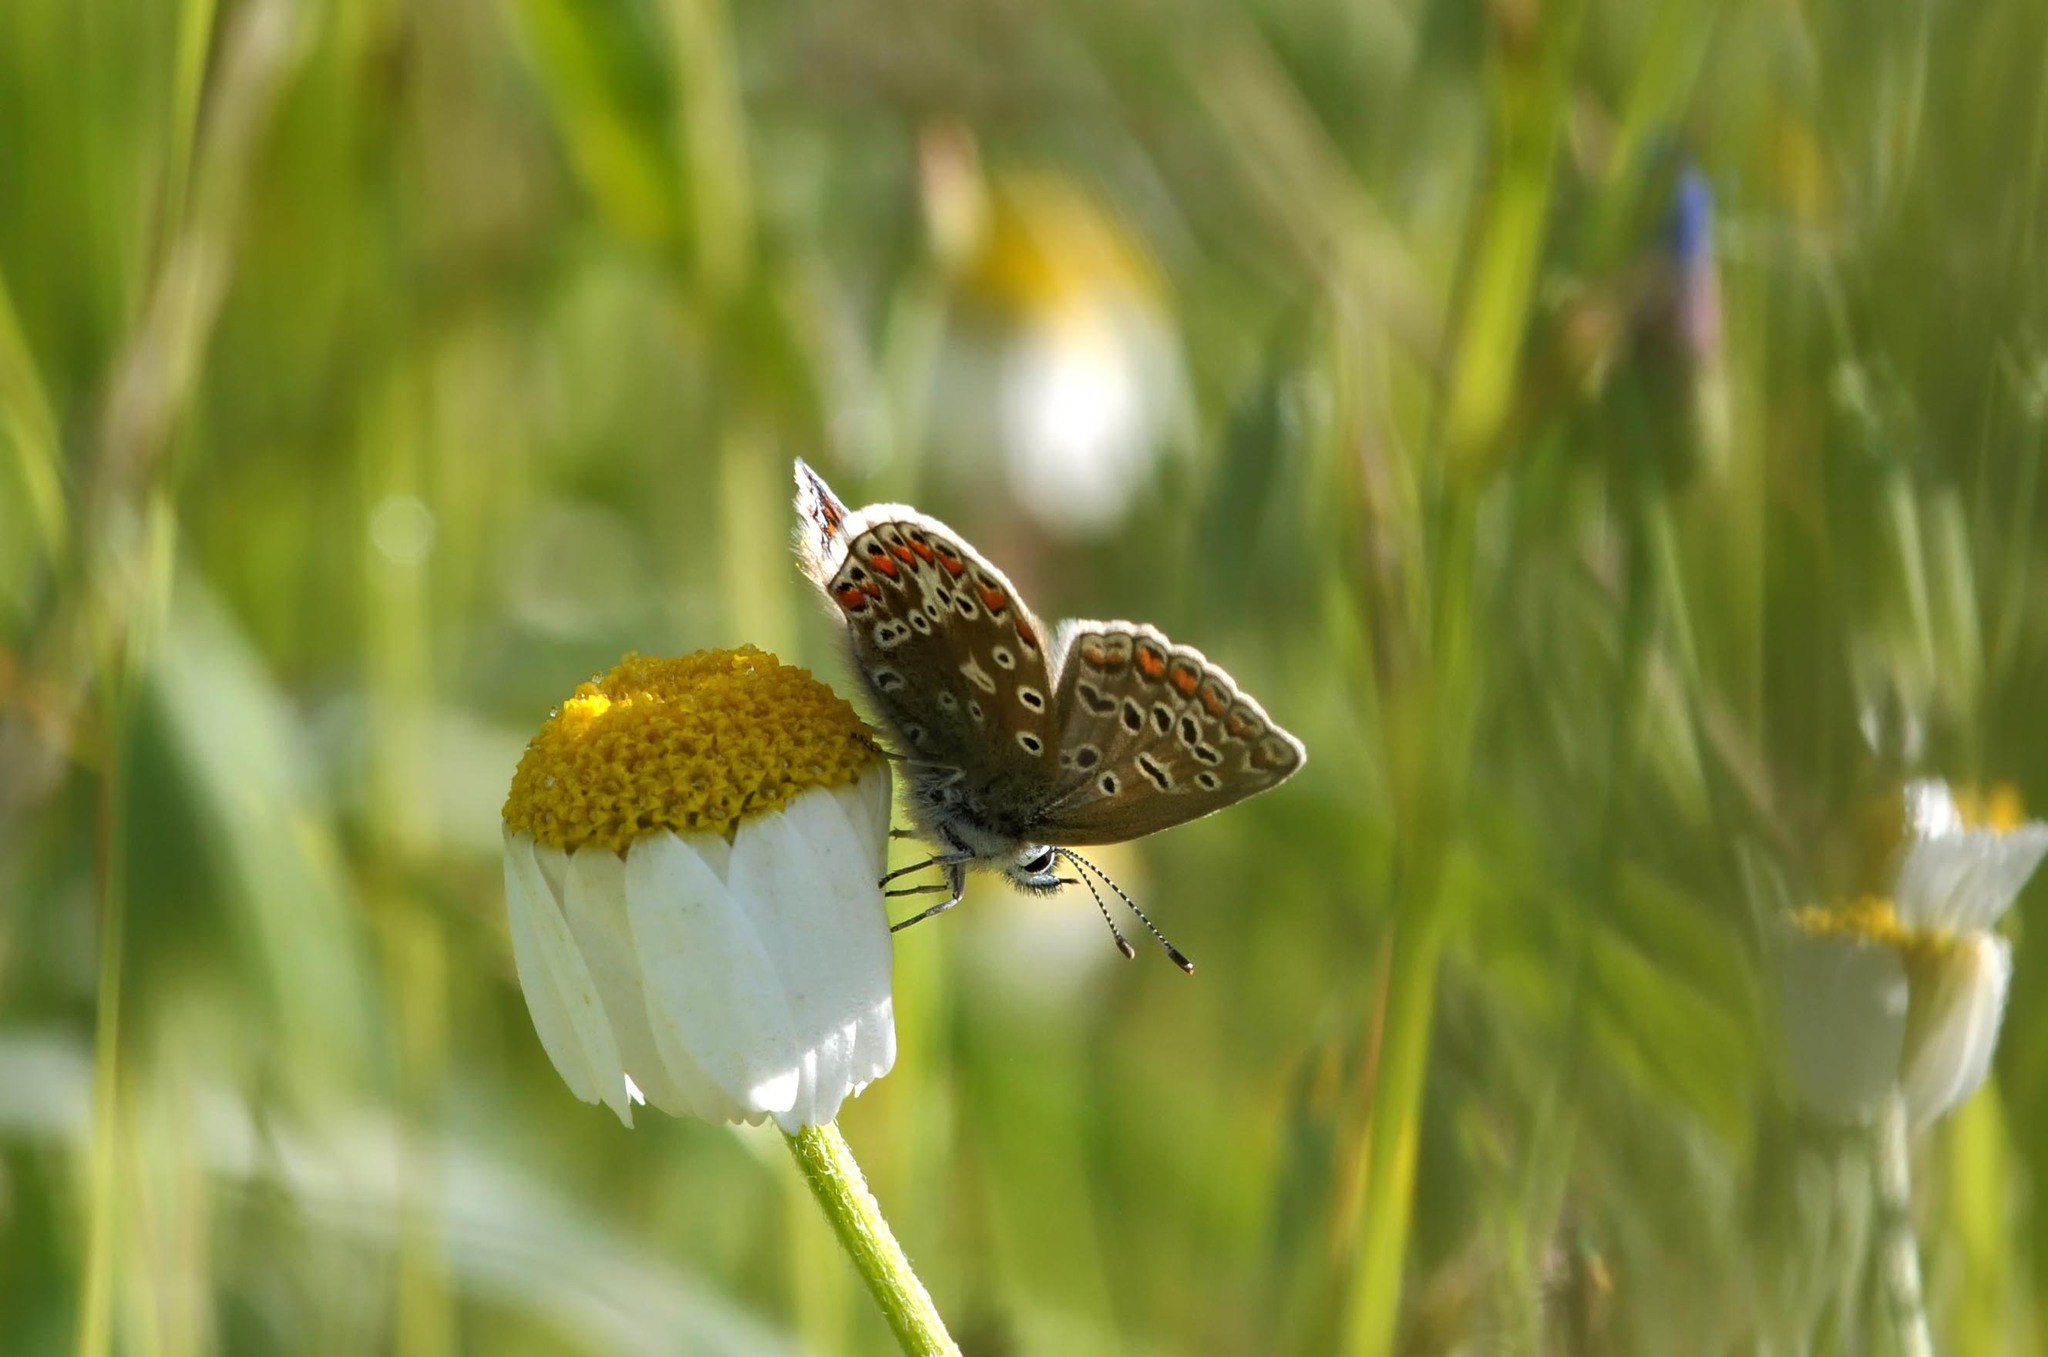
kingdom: Animalia
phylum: Arthropoda
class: Insecta
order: Lepidoptera
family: Lycaenidae
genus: Polyommatus
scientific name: Polyommatus icarus
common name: Common blue
